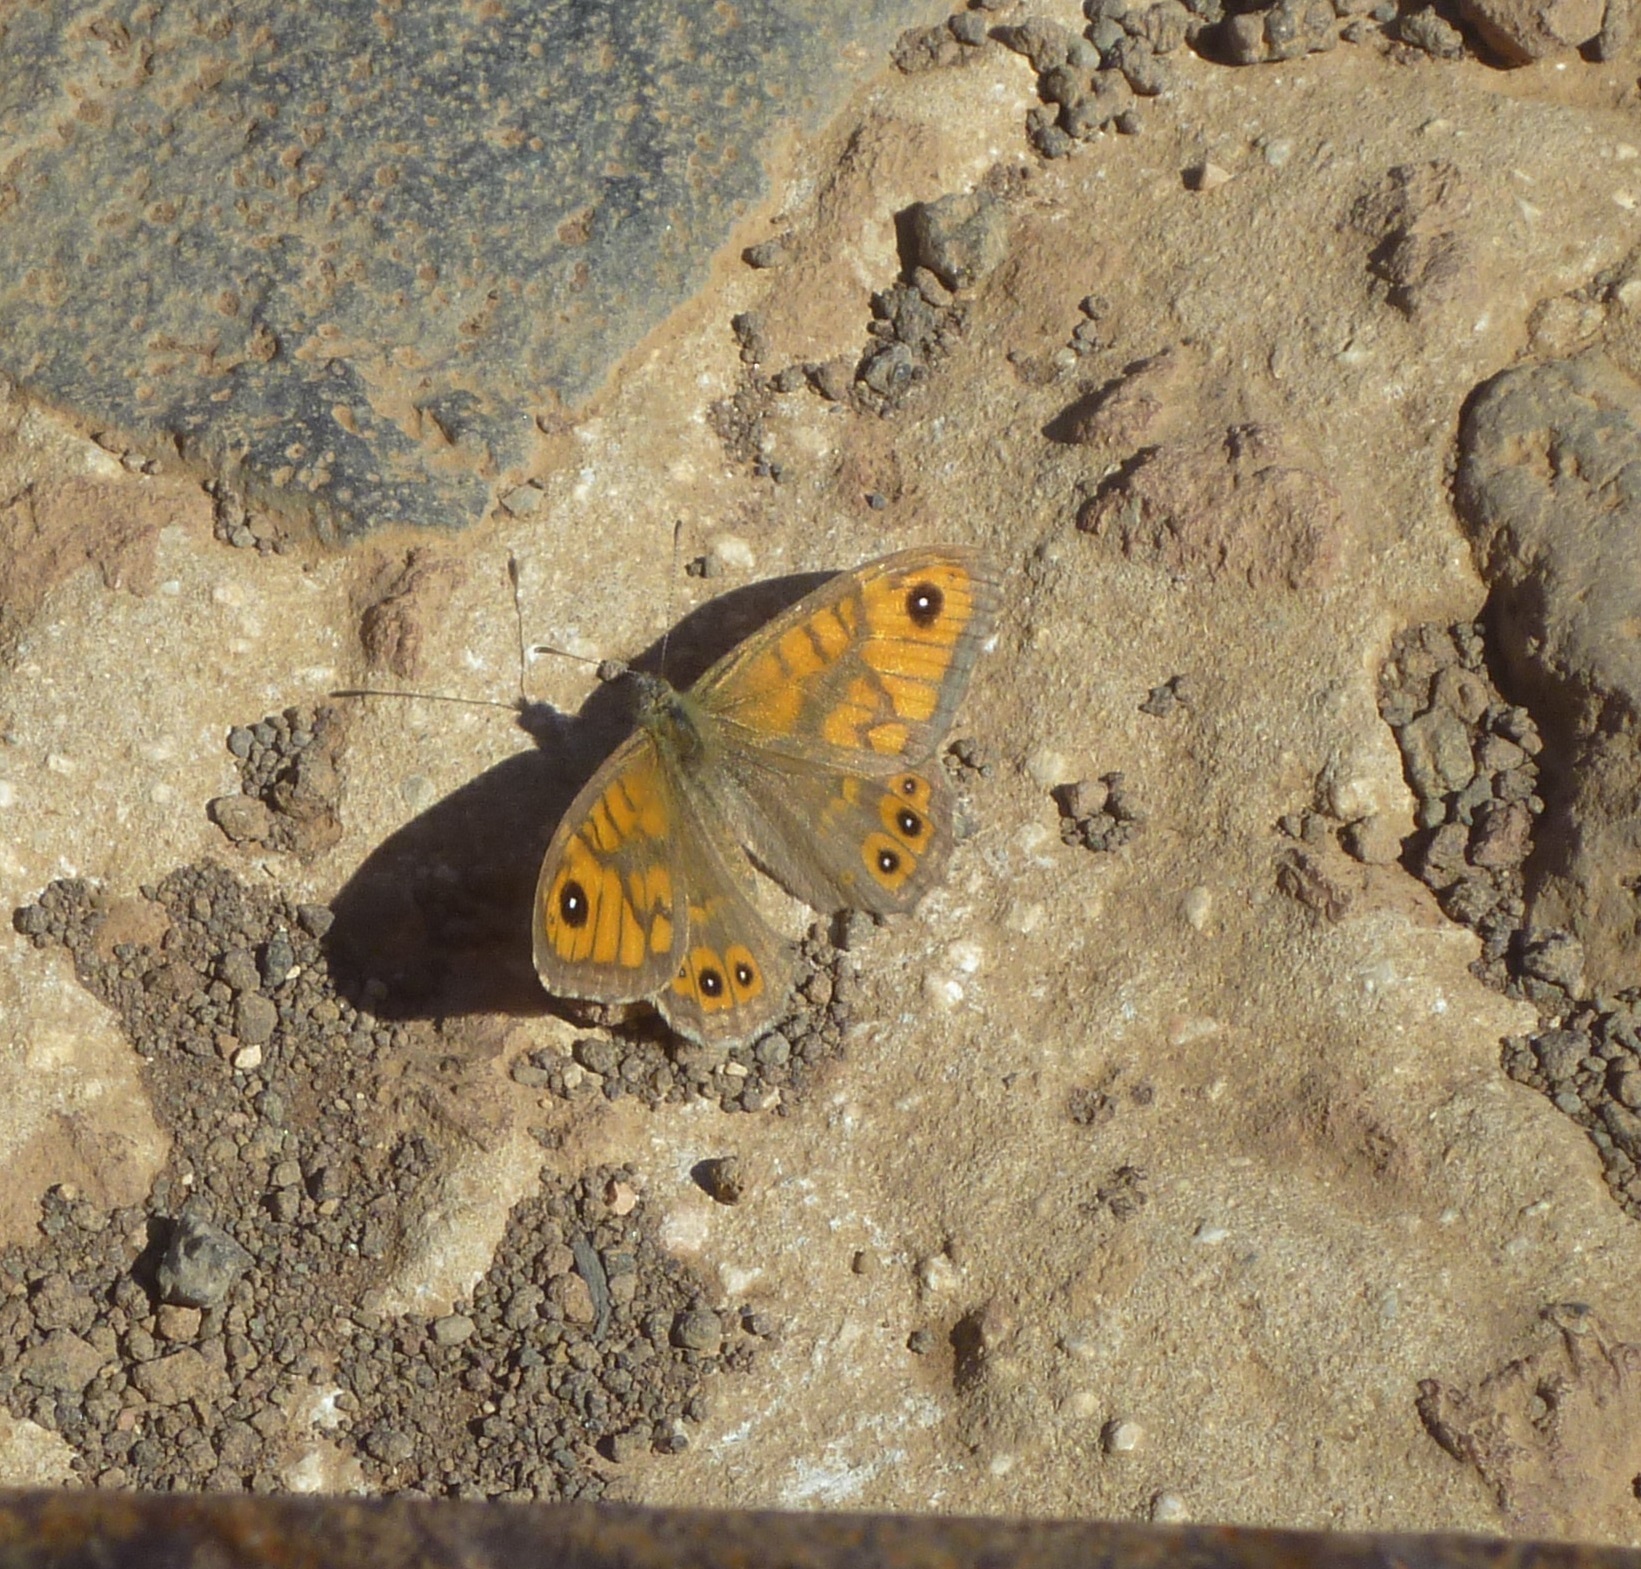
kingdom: Animalia
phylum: Arthropoda
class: Insecta
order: Lepidoptera
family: Nymphalidae
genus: Pararge
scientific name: Pararge Lasiommata megera
